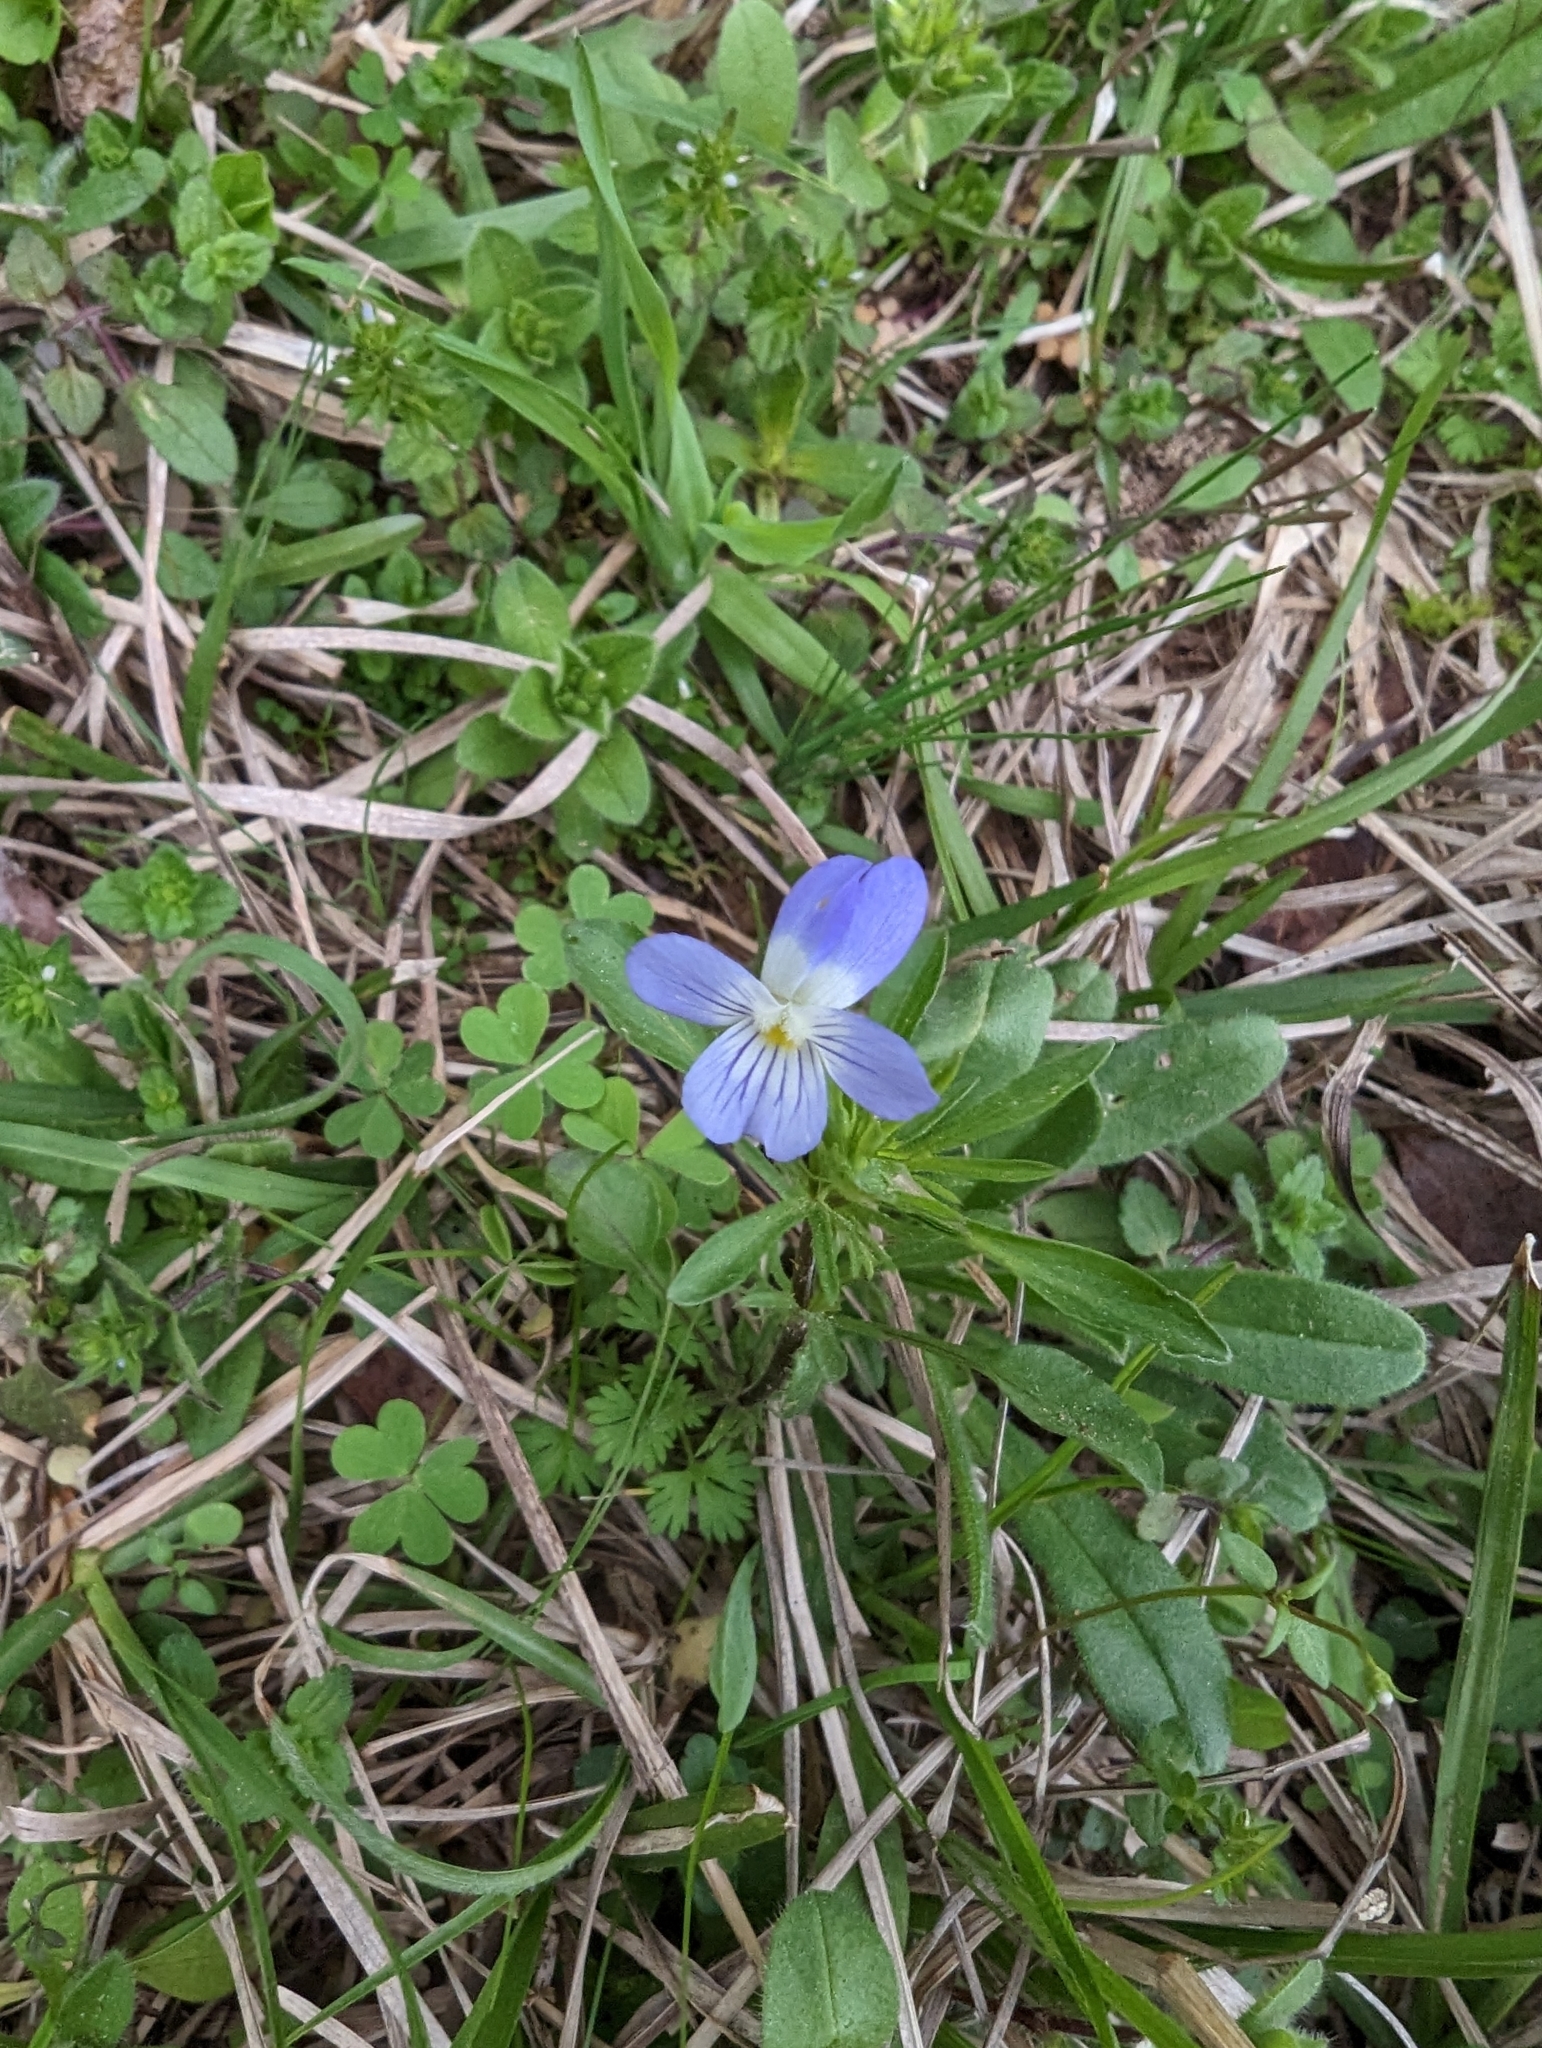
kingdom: Plantae
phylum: Tracheophyta
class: Magnoliopsida
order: Malpighiales
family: Violaceae
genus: Viola
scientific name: Viola rafinesquei
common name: American field pansy
